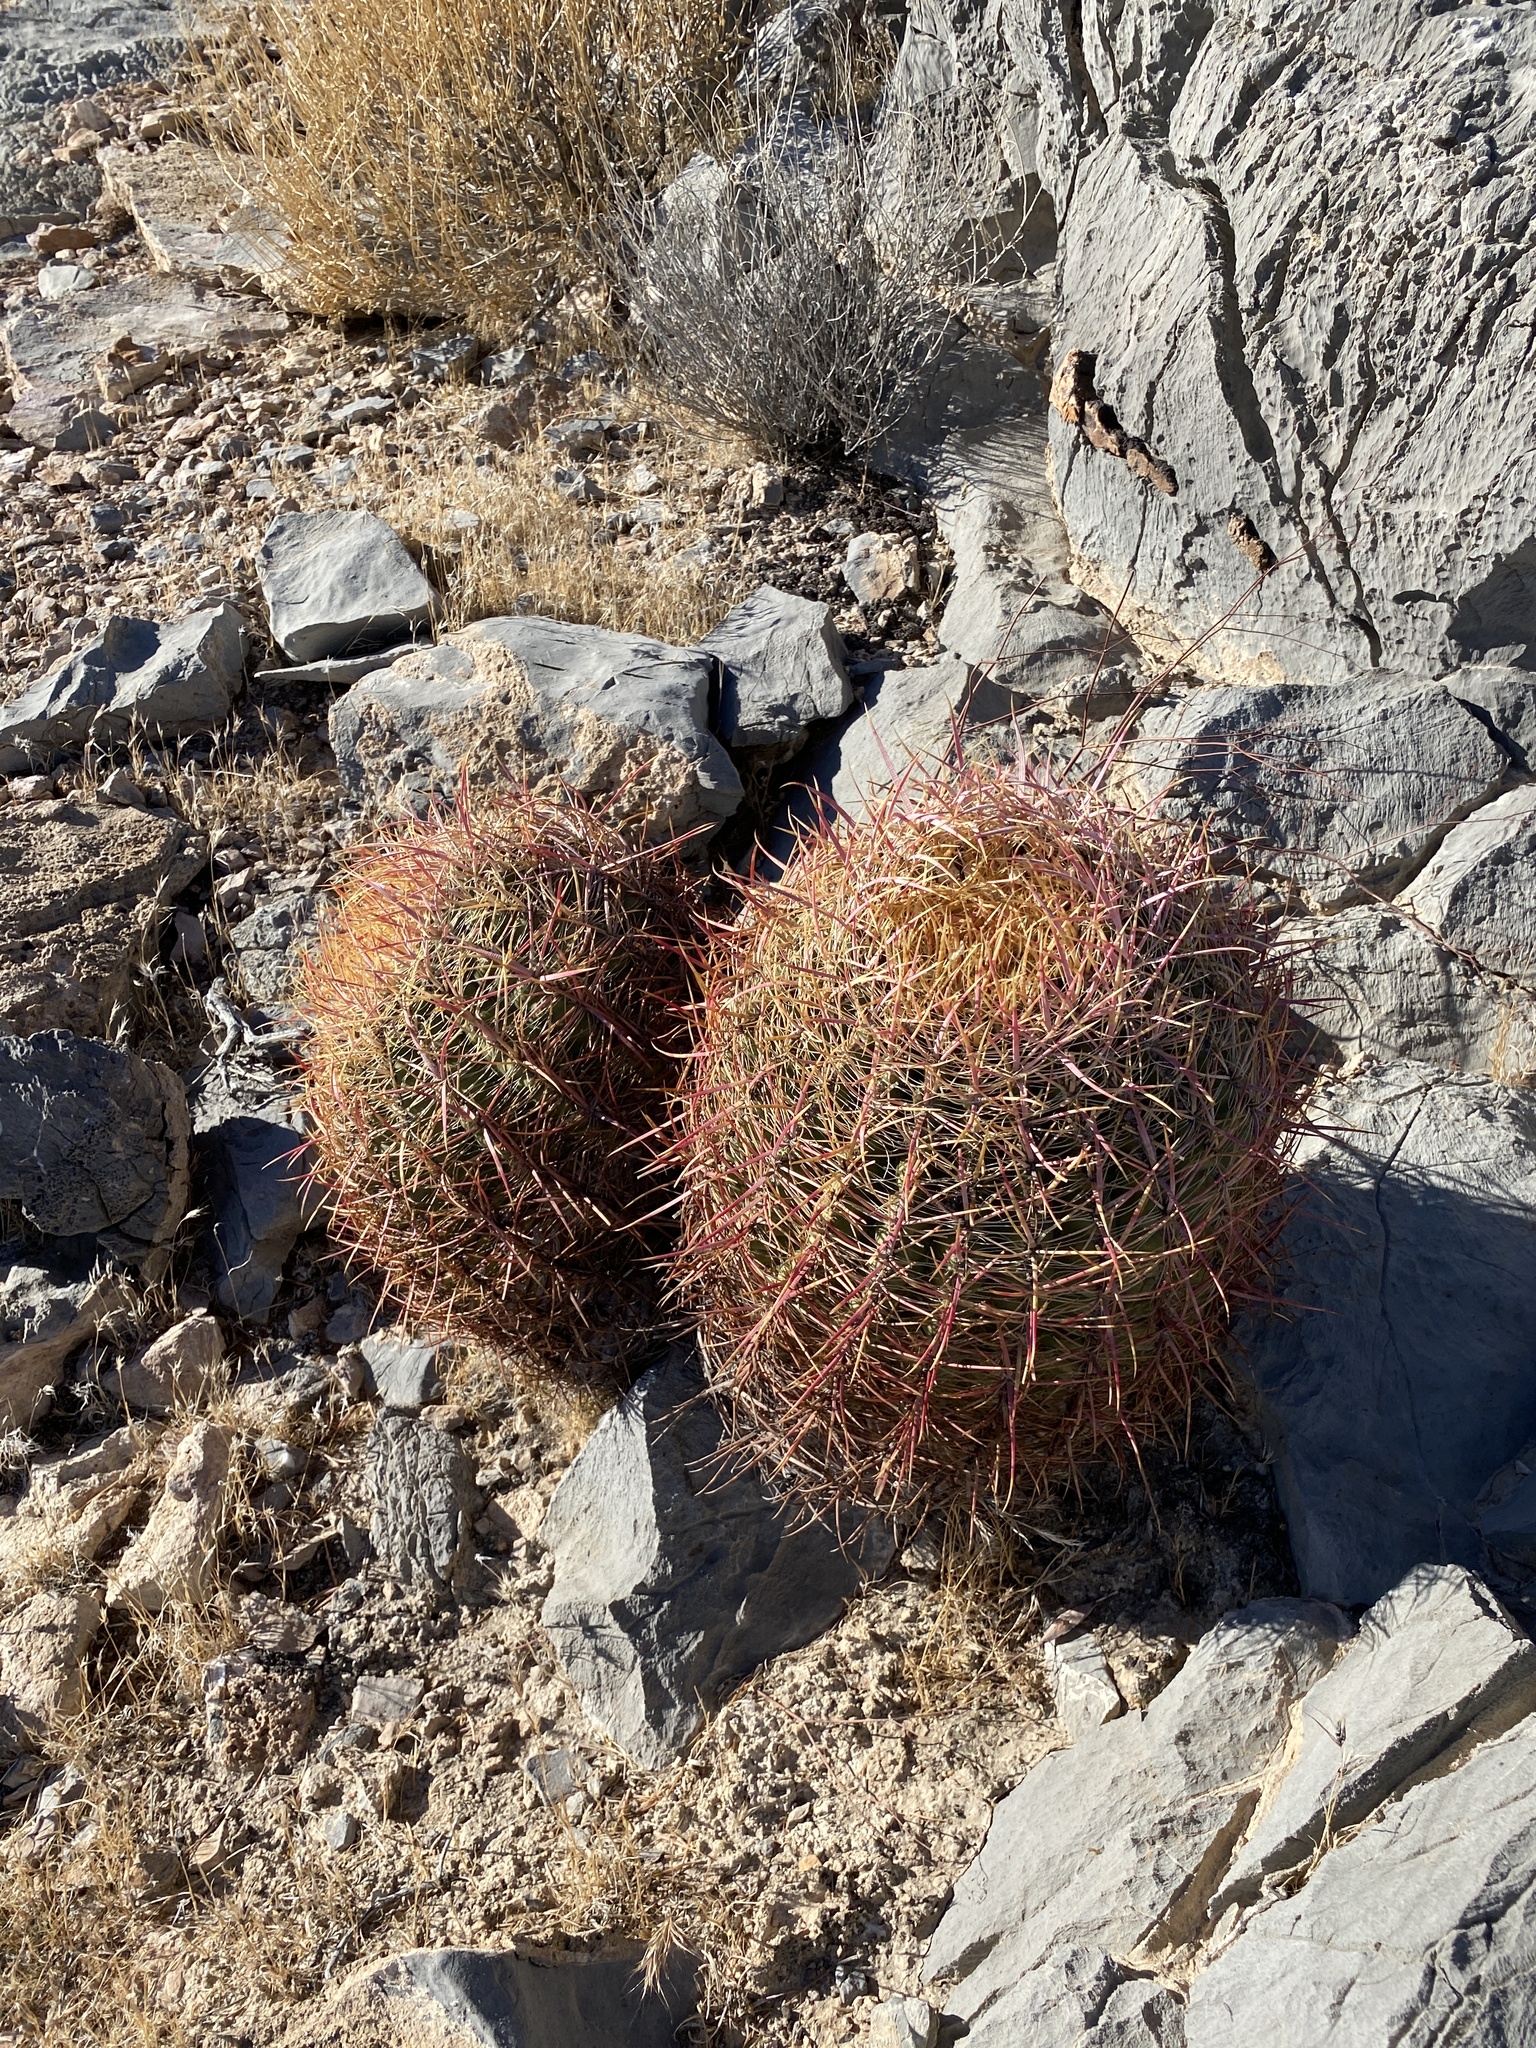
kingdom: Plantae
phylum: Tracheophyta
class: Magnoliopsida
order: Caryophyllales
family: Cactaceae
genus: Ferocactus
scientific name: Ferocactus cylindraceus
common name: California barrel cactus
